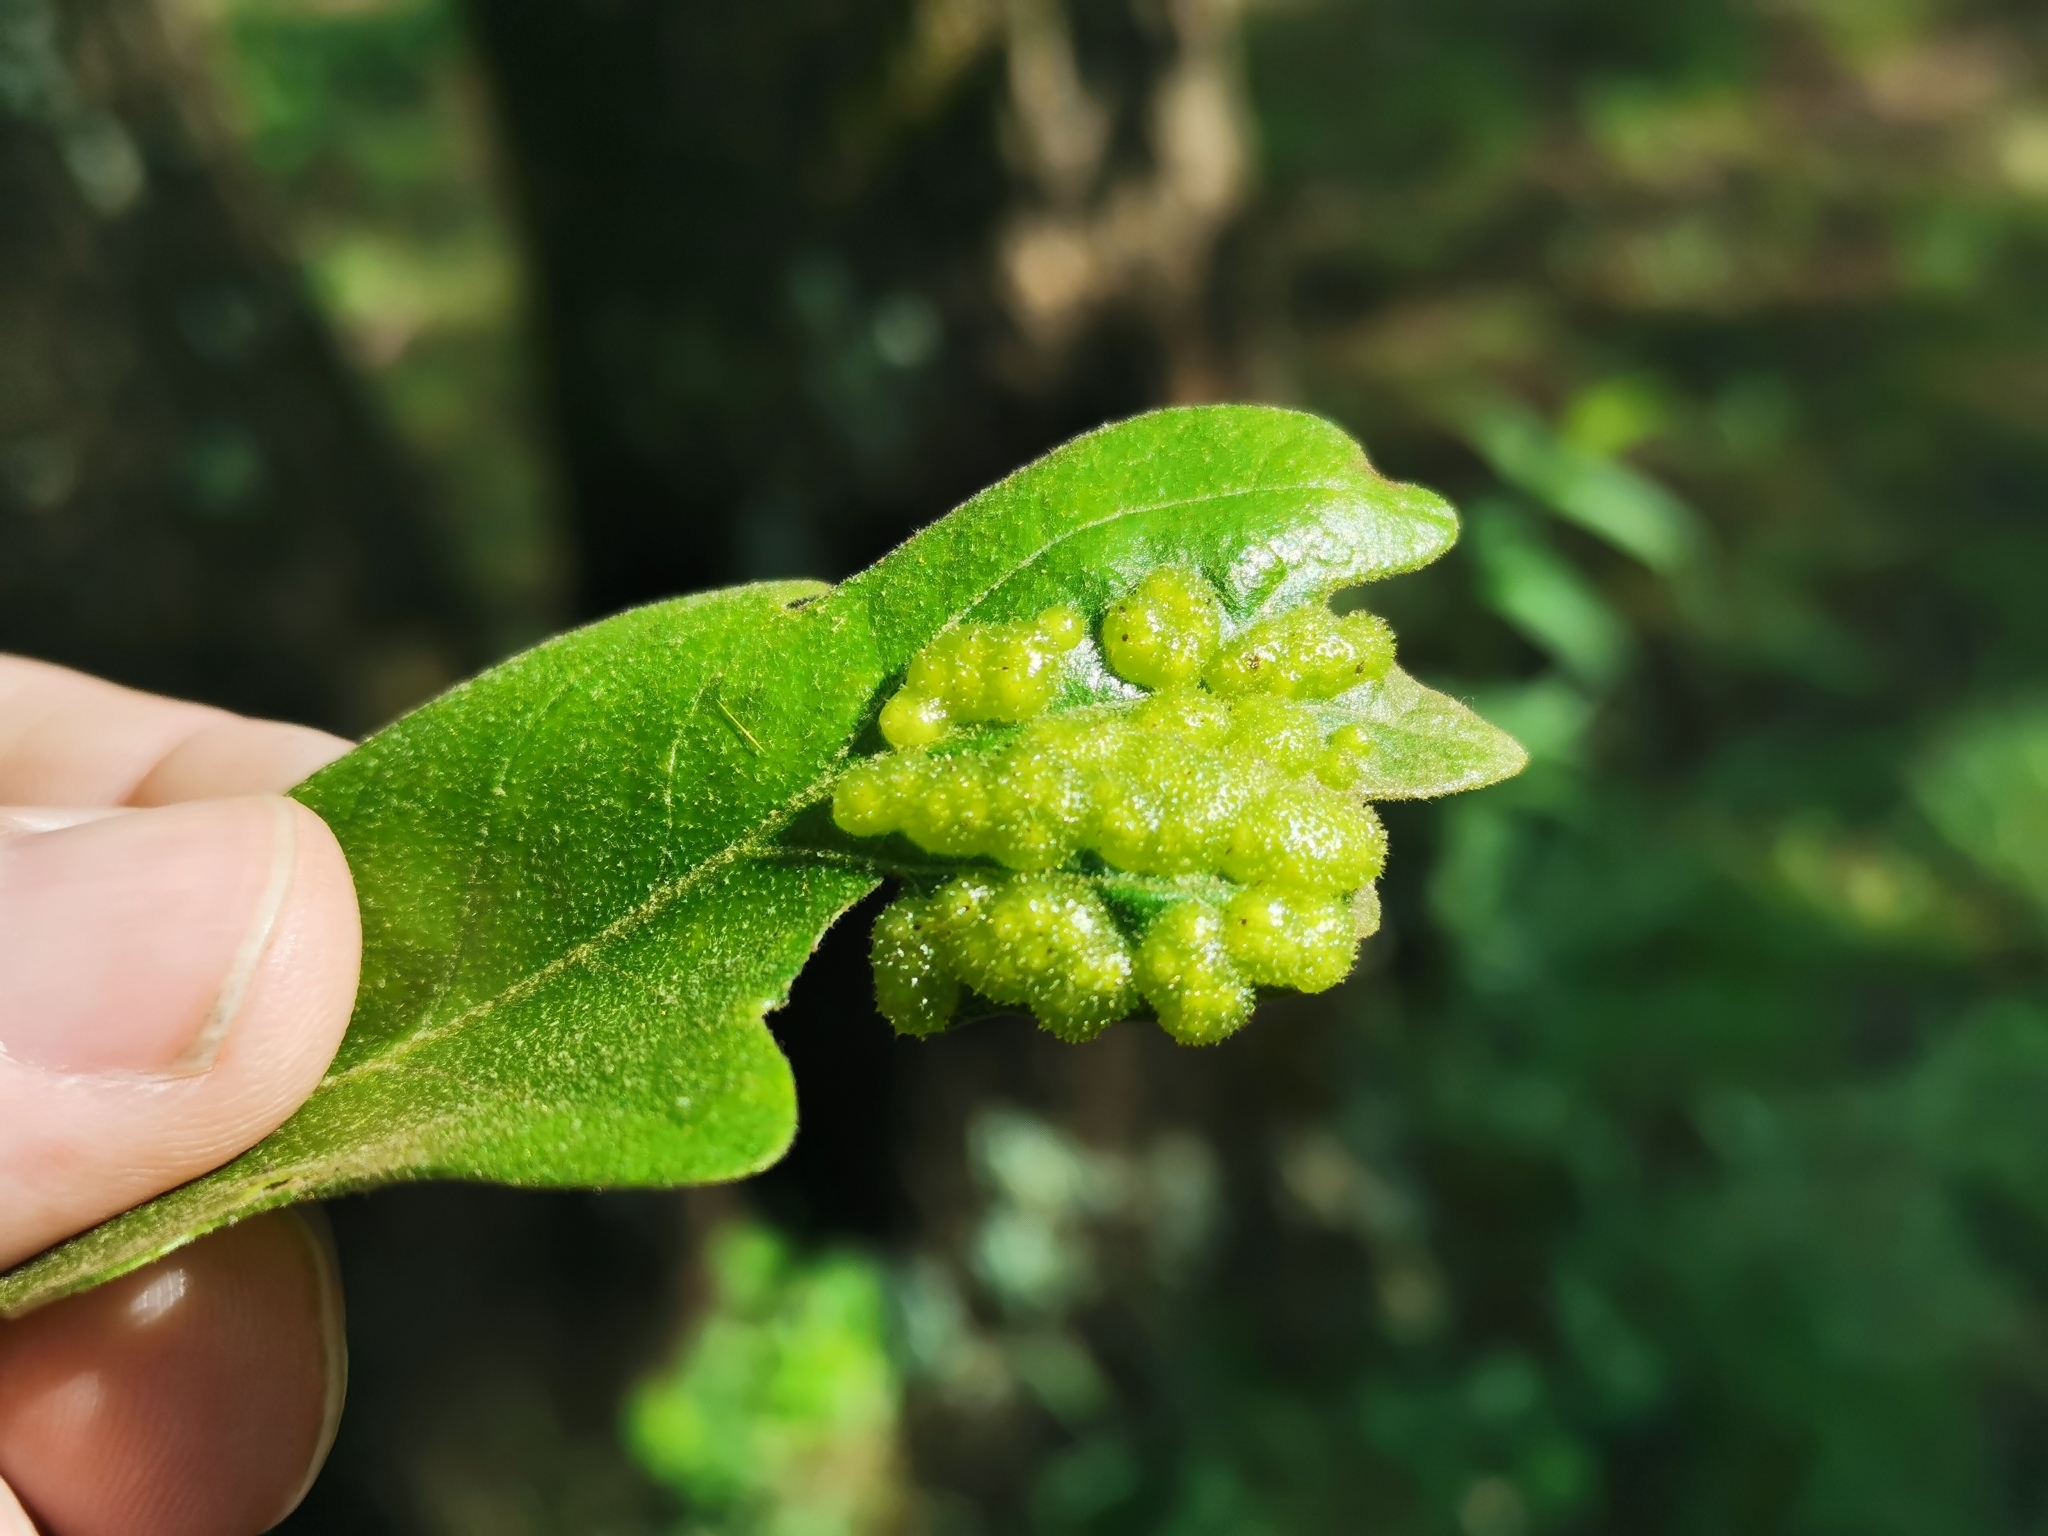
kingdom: Animalia
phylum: Arthropoda
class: Insecta
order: Hymenoptera
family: Cynipidae
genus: Neuroterus
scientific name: Neuroterus quercusirregularis
